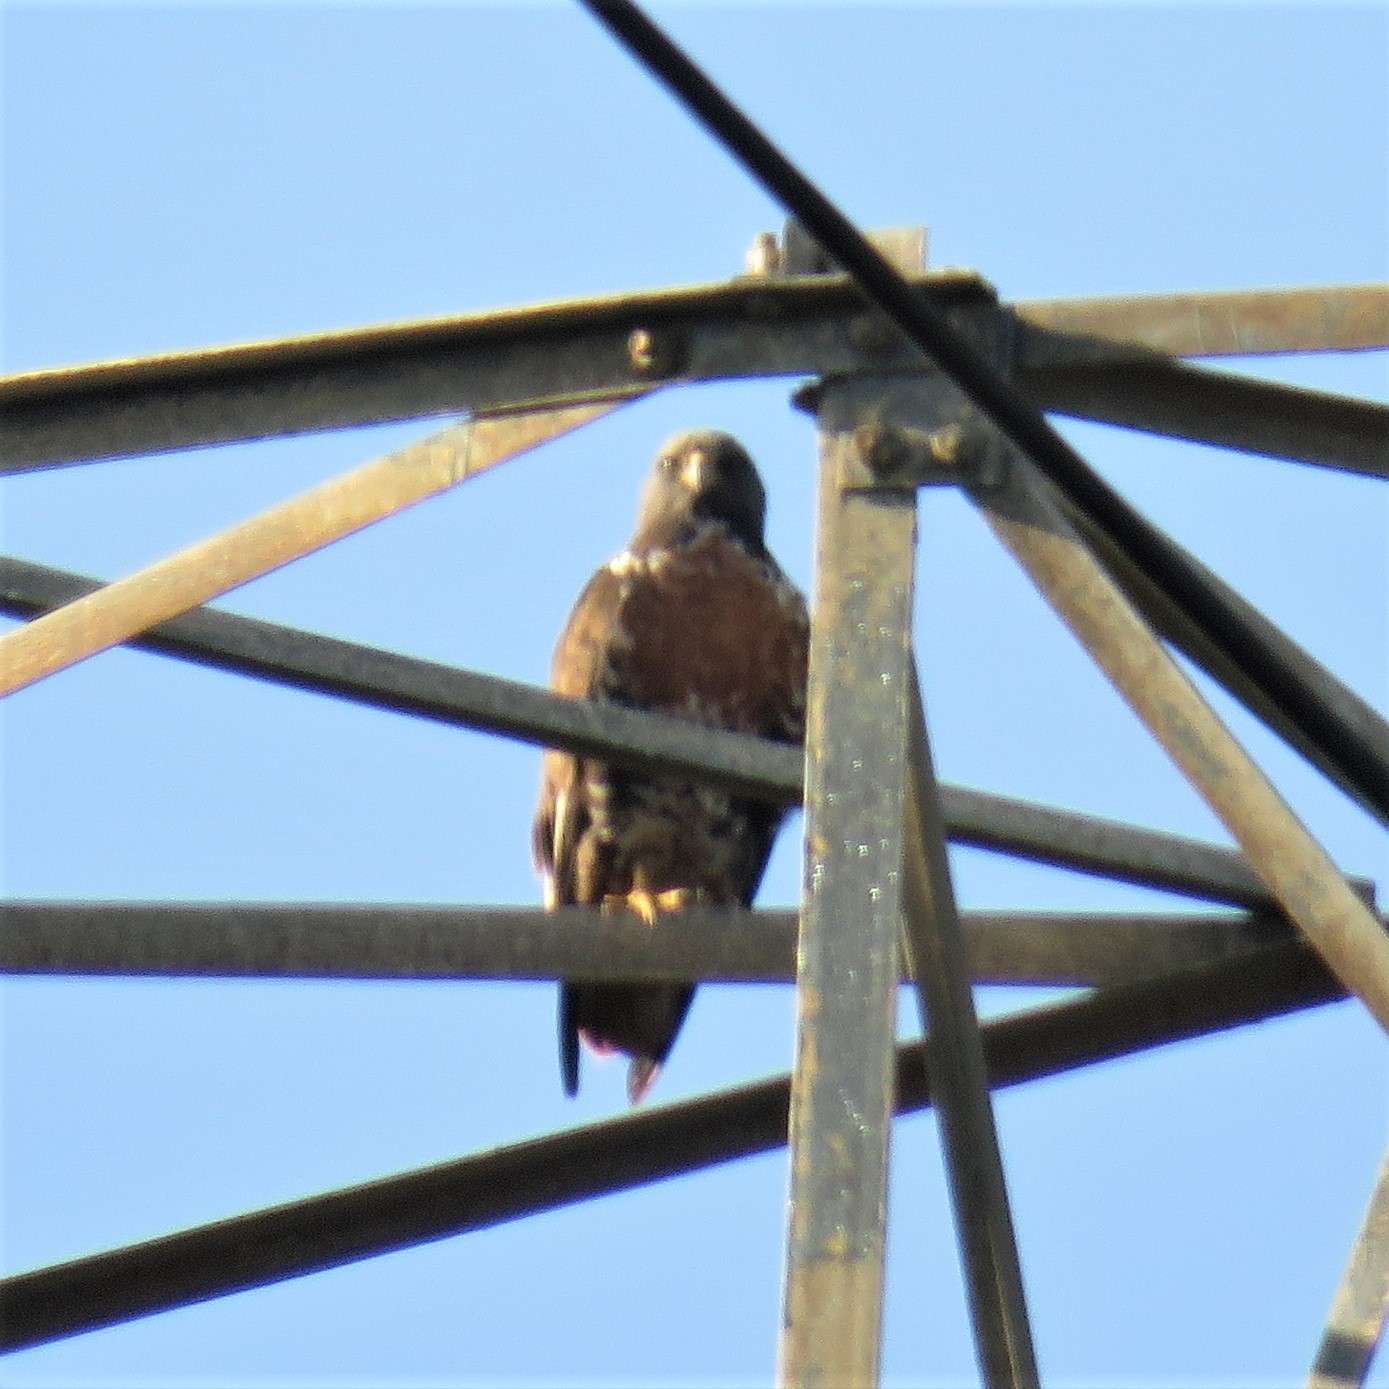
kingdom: Animalia
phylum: Chordata
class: Aves
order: Accipitriformes
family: Accipitridae
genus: Buteo
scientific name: Buteo rufofuscus
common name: Jackal buzzard
